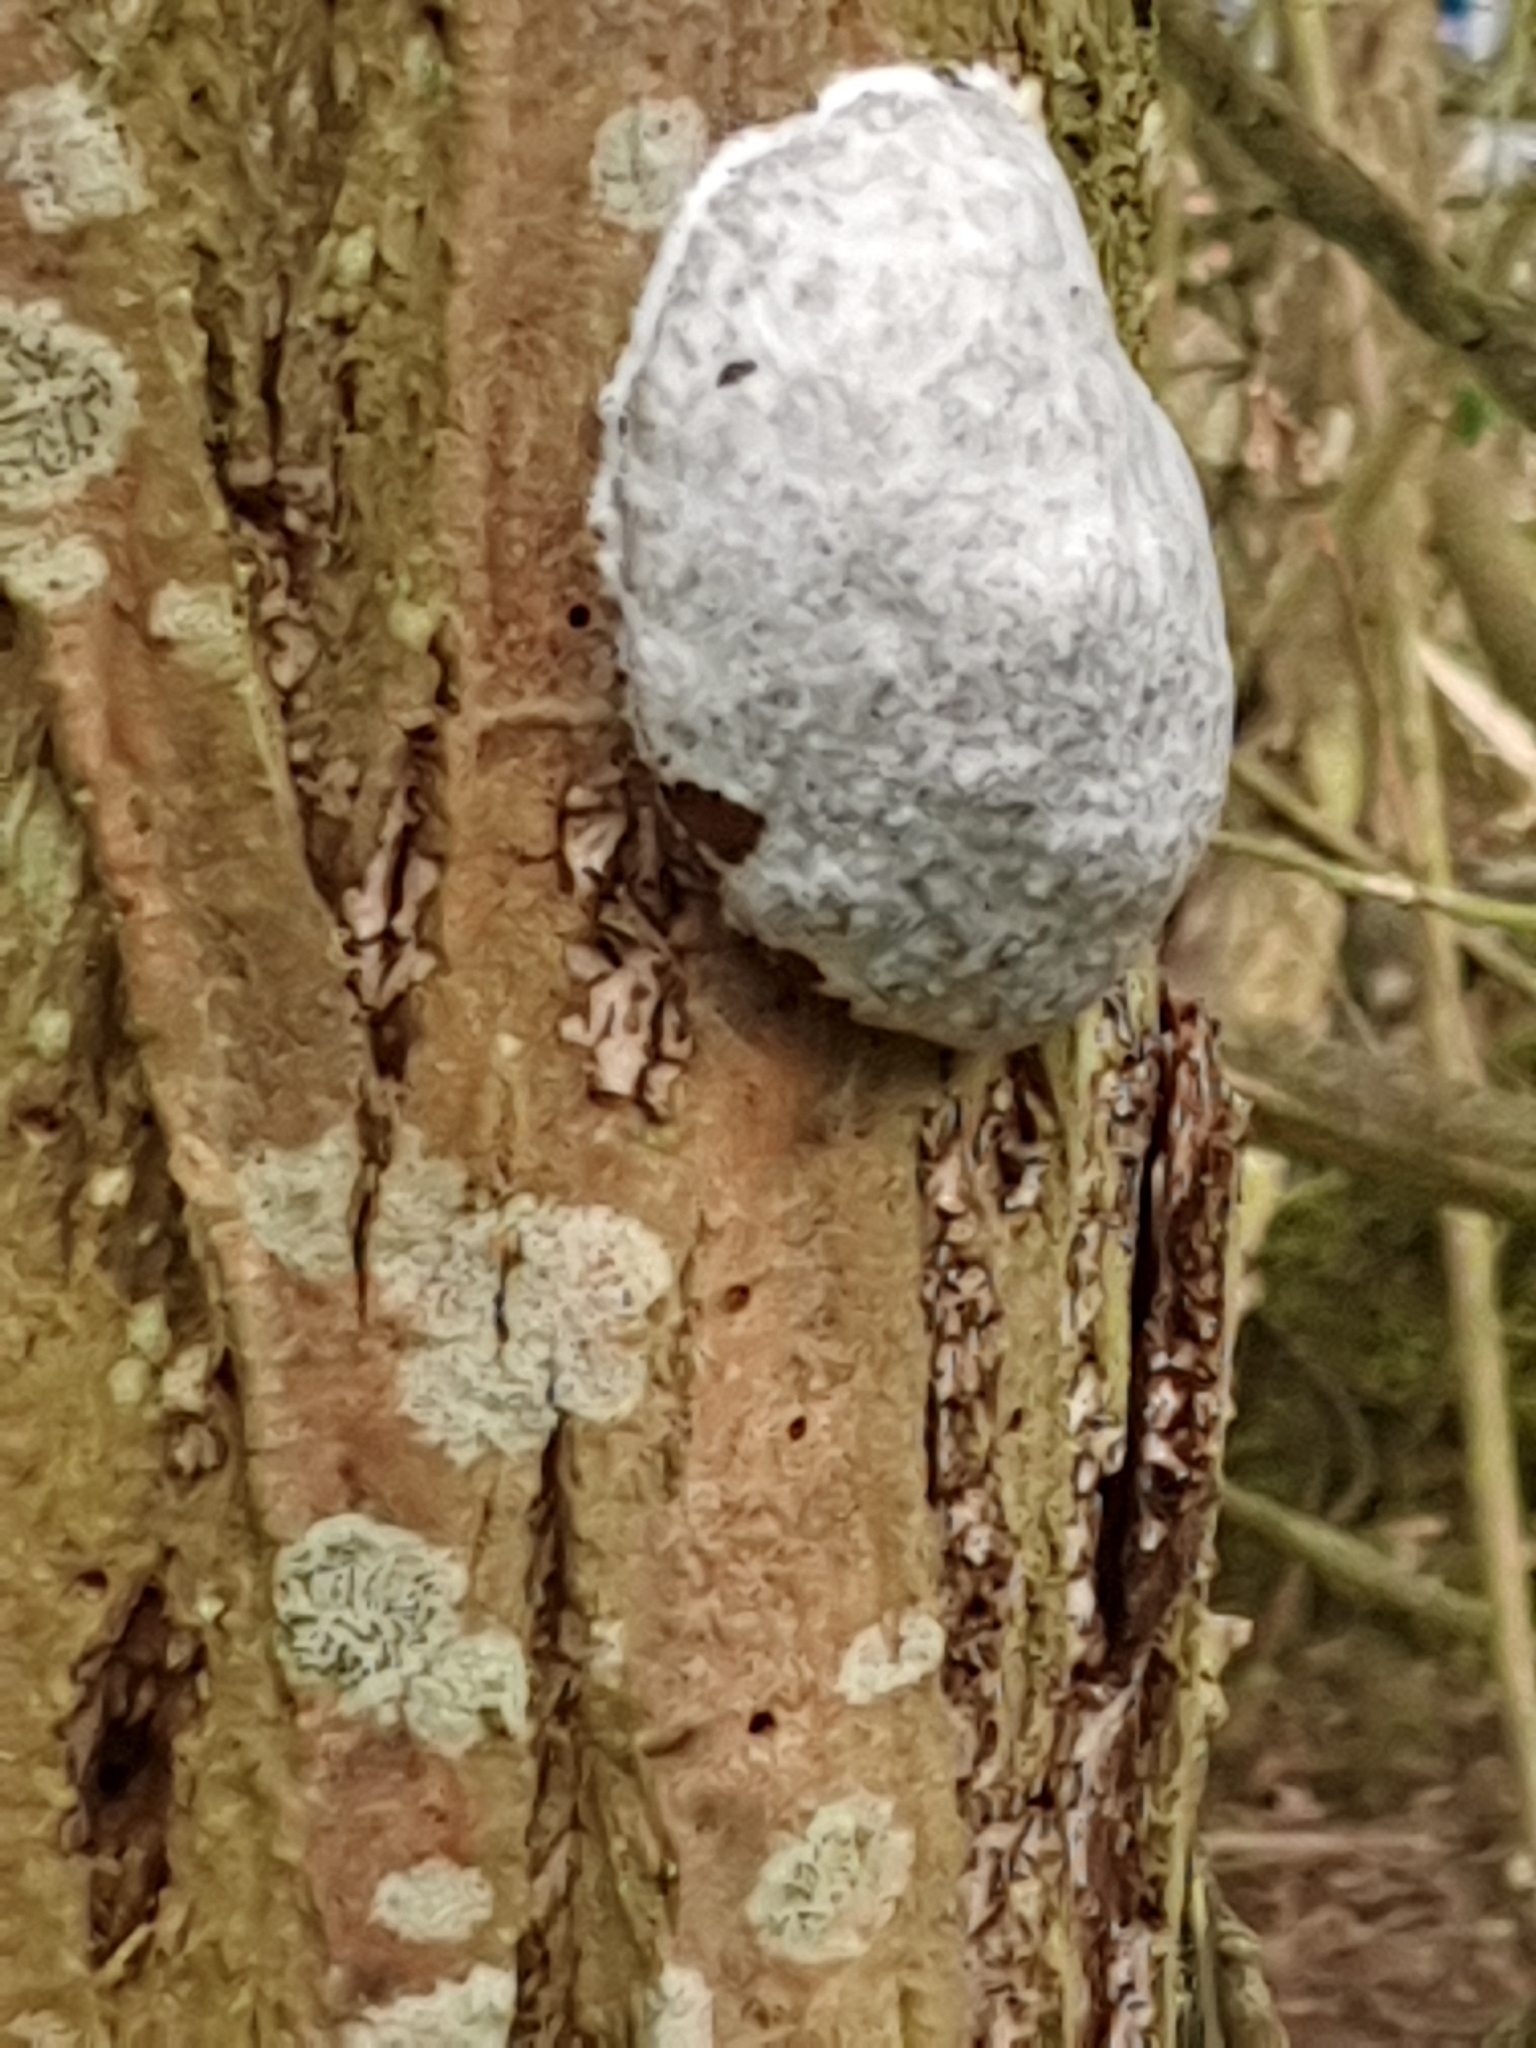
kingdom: Protozoa
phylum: Mycetozoa
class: Myxomycetes
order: Cribrariales
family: Tubiferaceae
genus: Reticularia
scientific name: Reticularia lycoperdon
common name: False puffball
